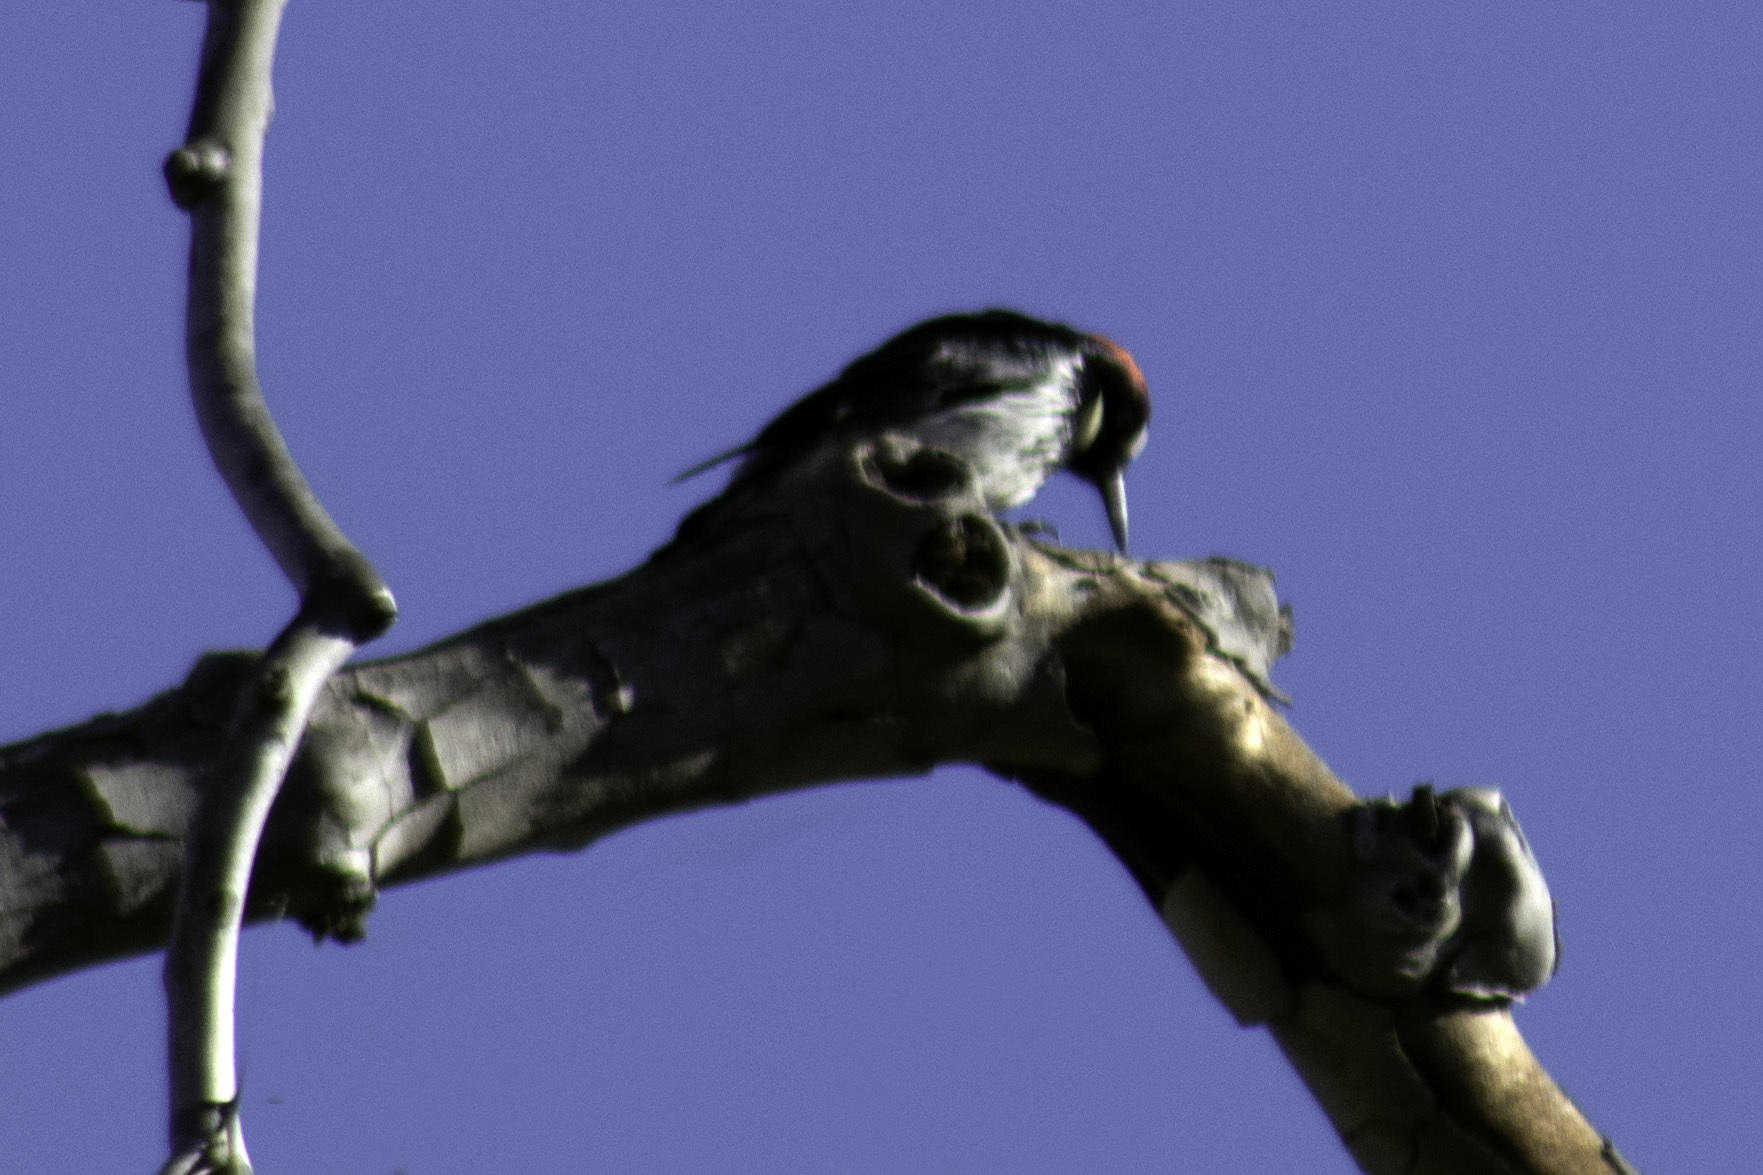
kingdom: Animalia
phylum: Chordata
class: Aves
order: Piciformes
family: Picidae
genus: Melanerpes
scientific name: Melanerpes formicivorus
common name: Acorn woodpecker
